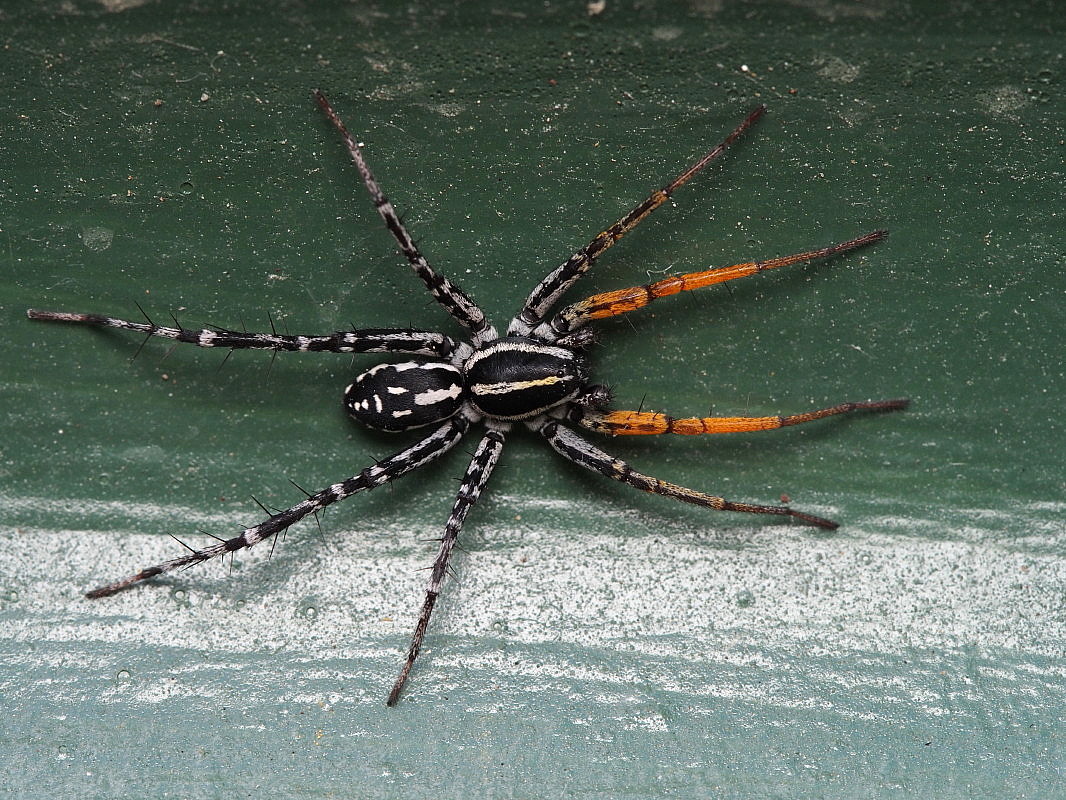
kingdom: Animalia
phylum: Arthropoda
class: Arachnida
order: Araneae
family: Corinnidae
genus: Nyssus
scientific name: Nyssus coloripes
